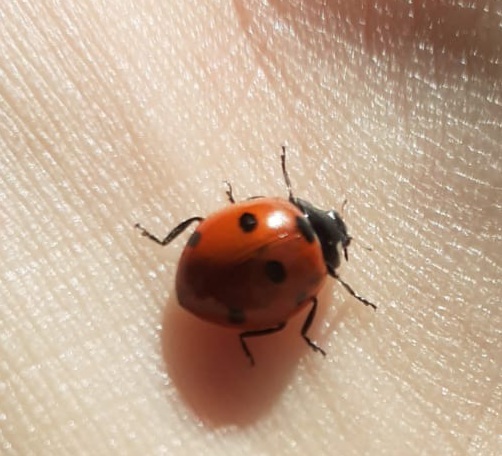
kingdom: Animalia
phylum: Arthropoda
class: Insecta
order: Coleoptera
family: Coccinellidae
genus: Coccinella
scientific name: Coccinella septempunctata
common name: Sevenspotted lady beetle
